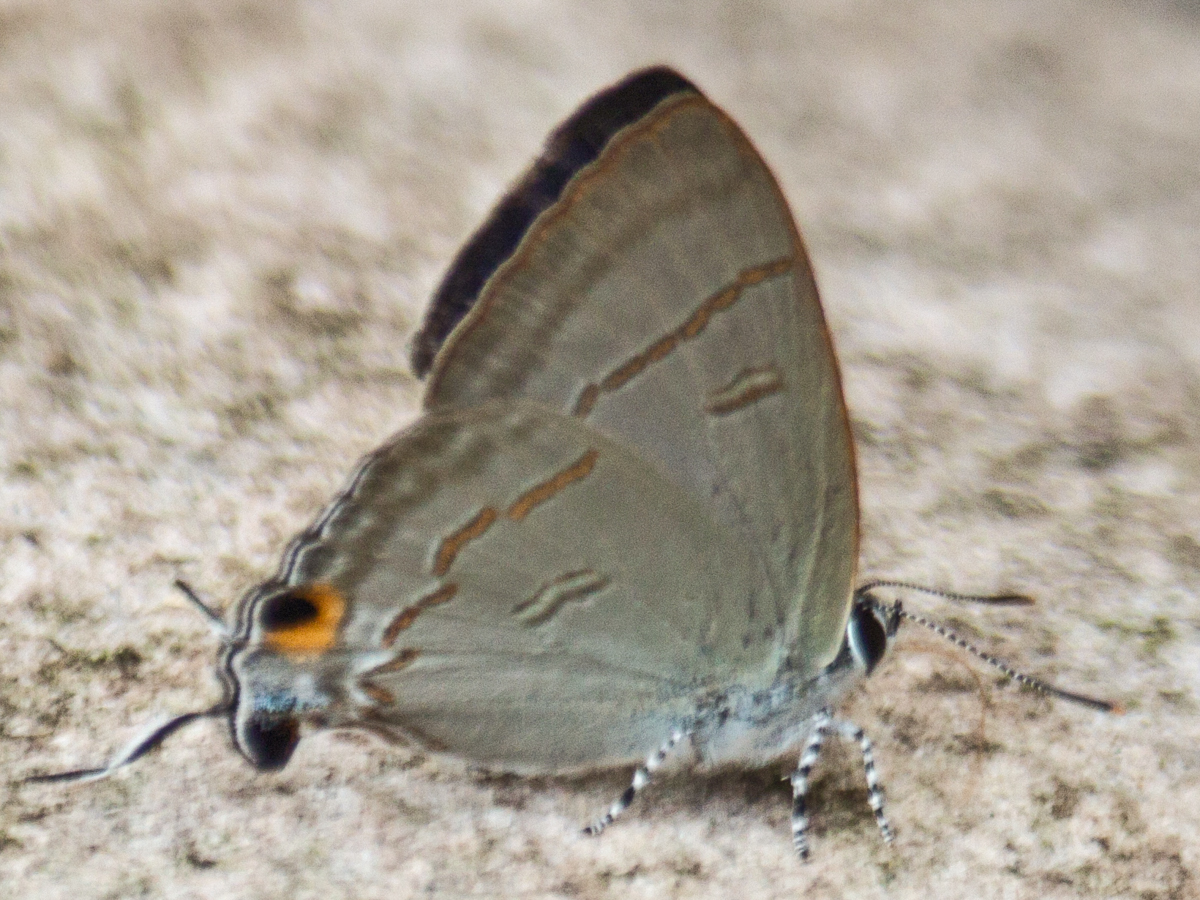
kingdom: Animalia
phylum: Arthropoda
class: Insecta
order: Lepidoptera
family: Lycaenidae
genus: Hypolycaena
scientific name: Hypolycaena erylus
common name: Common tit
